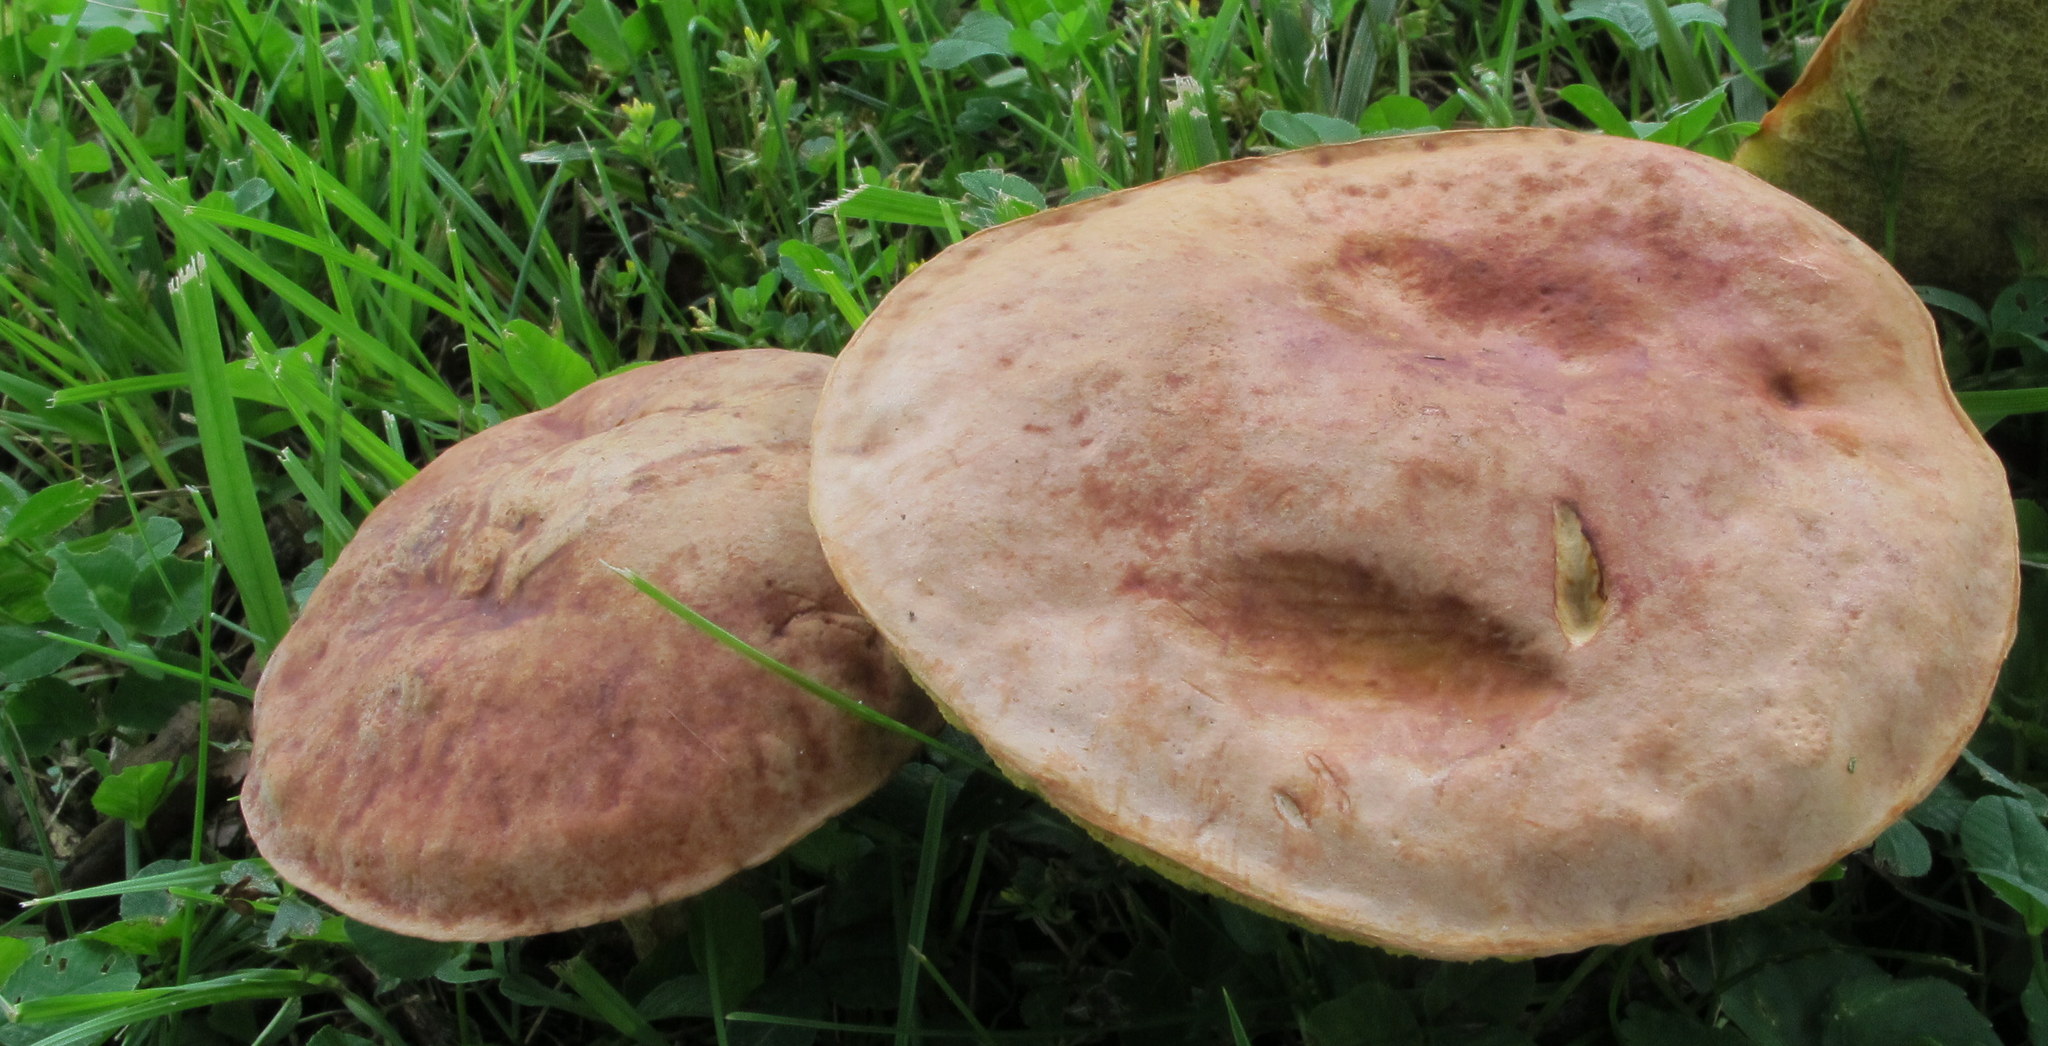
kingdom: Fungi
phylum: Basidiomycota
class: Agaricomycetes
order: Boletales
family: Boletaceae
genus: Hemileccinum
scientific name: Hemileccinum subglabripes
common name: Smoothish-stemmed bolete
